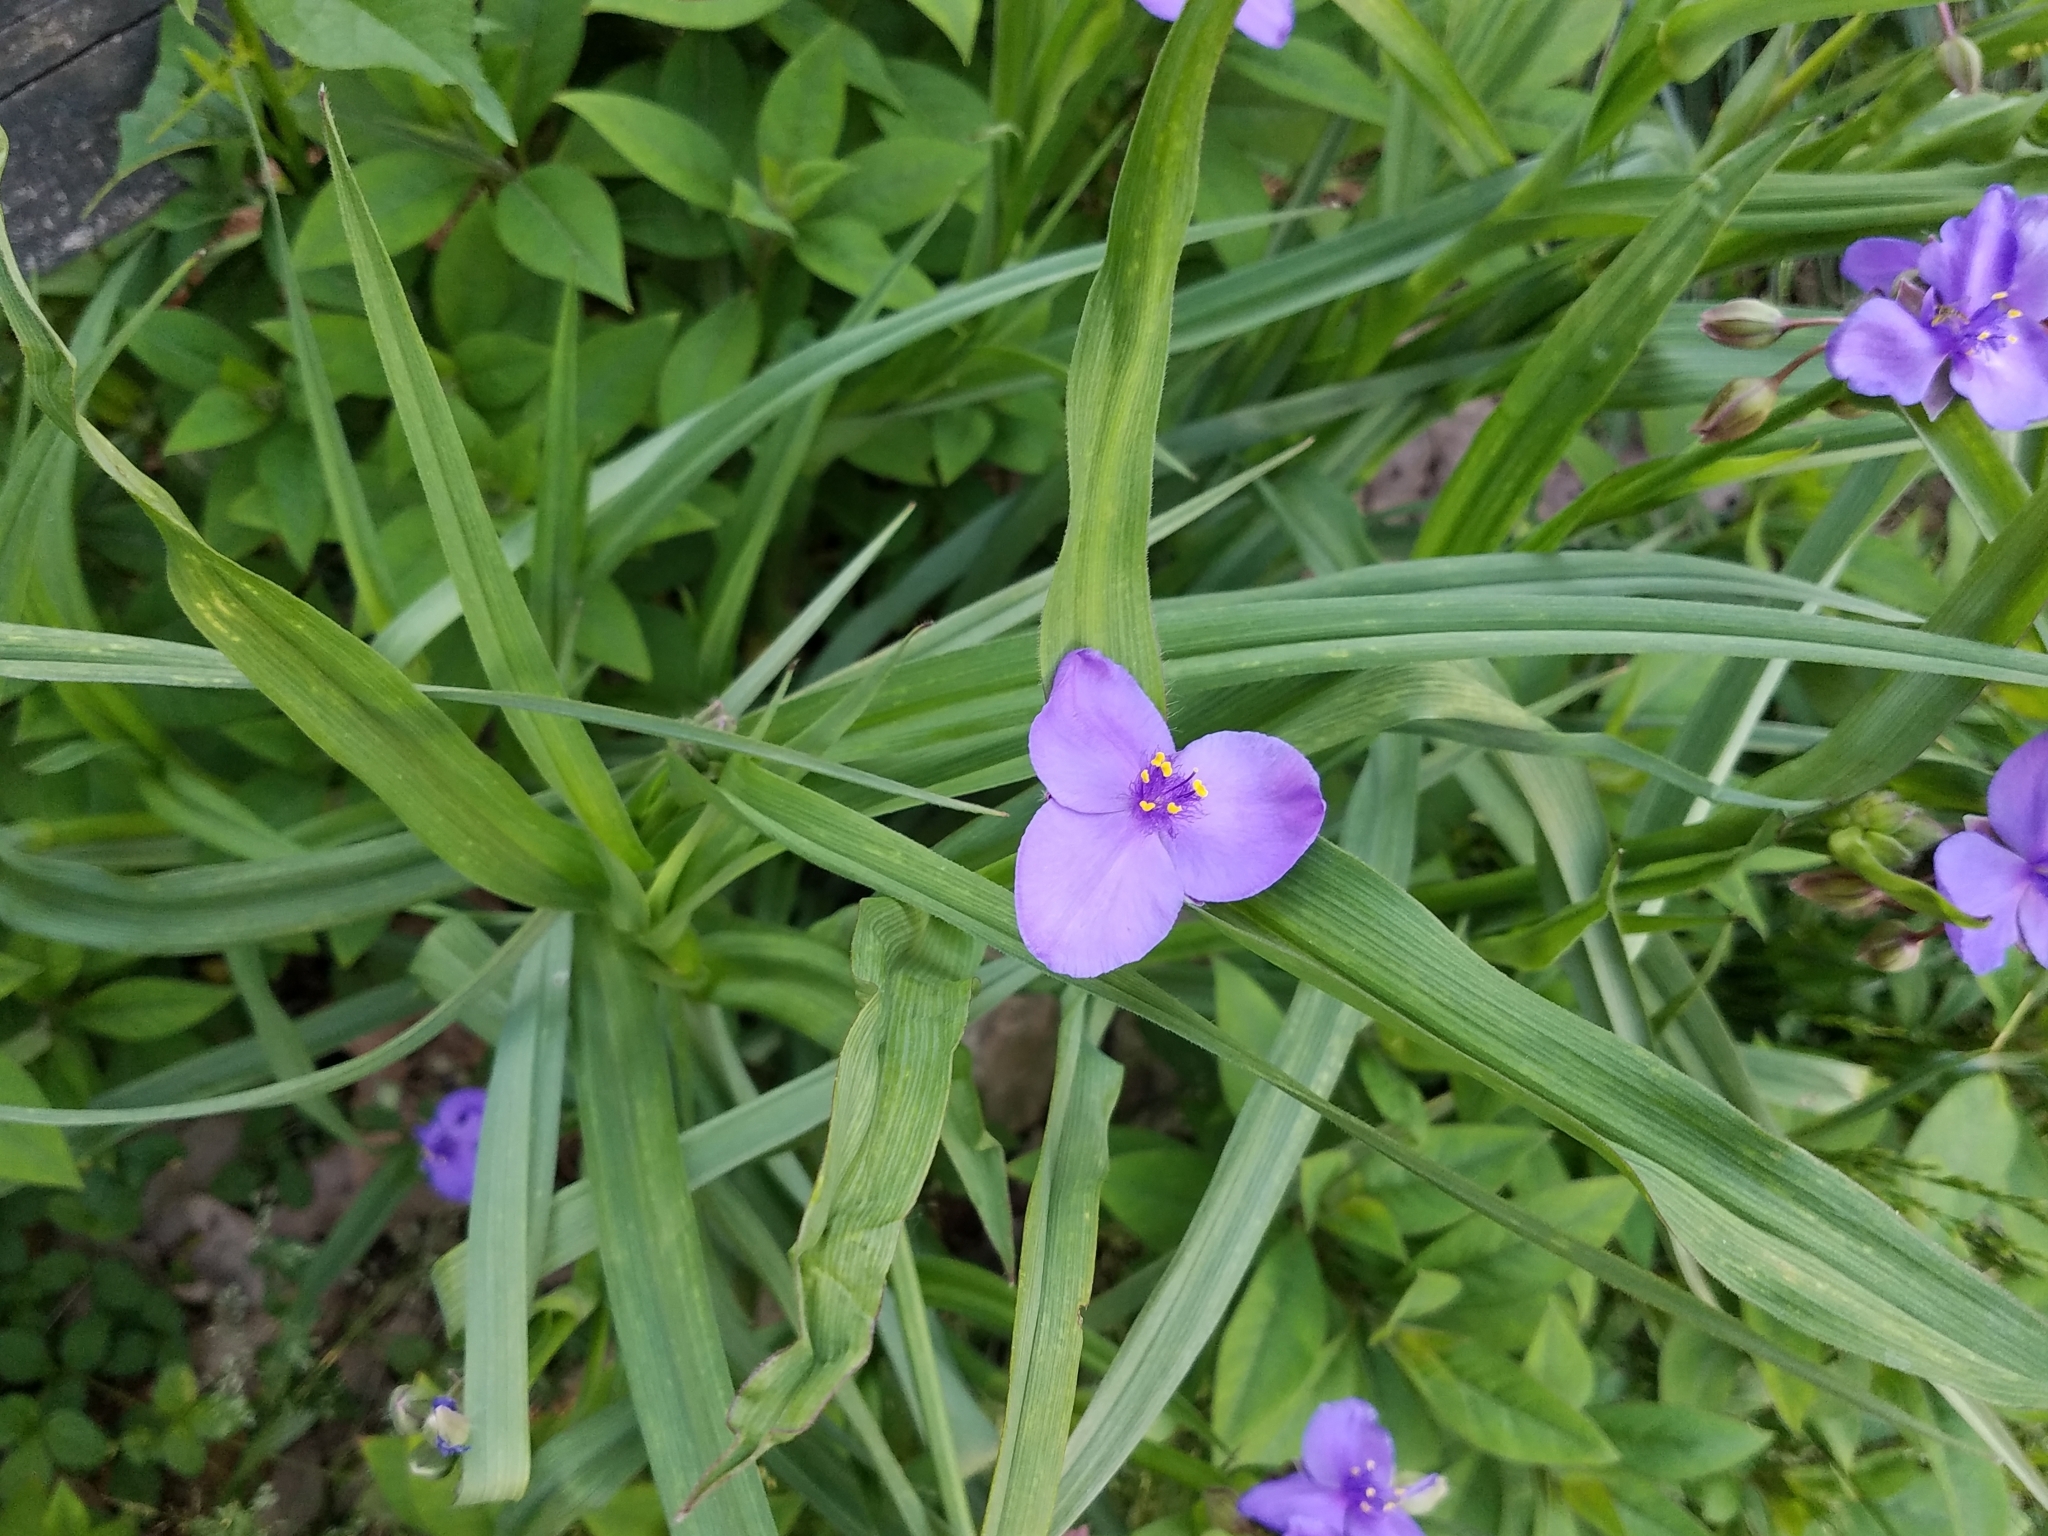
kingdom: Plantae
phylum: Tracheophyta
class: Liliopsida
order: Commelinales
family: Commelinaceae
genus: Tradescantia
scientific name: Tradescantia virginiana
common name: Spiderwort
